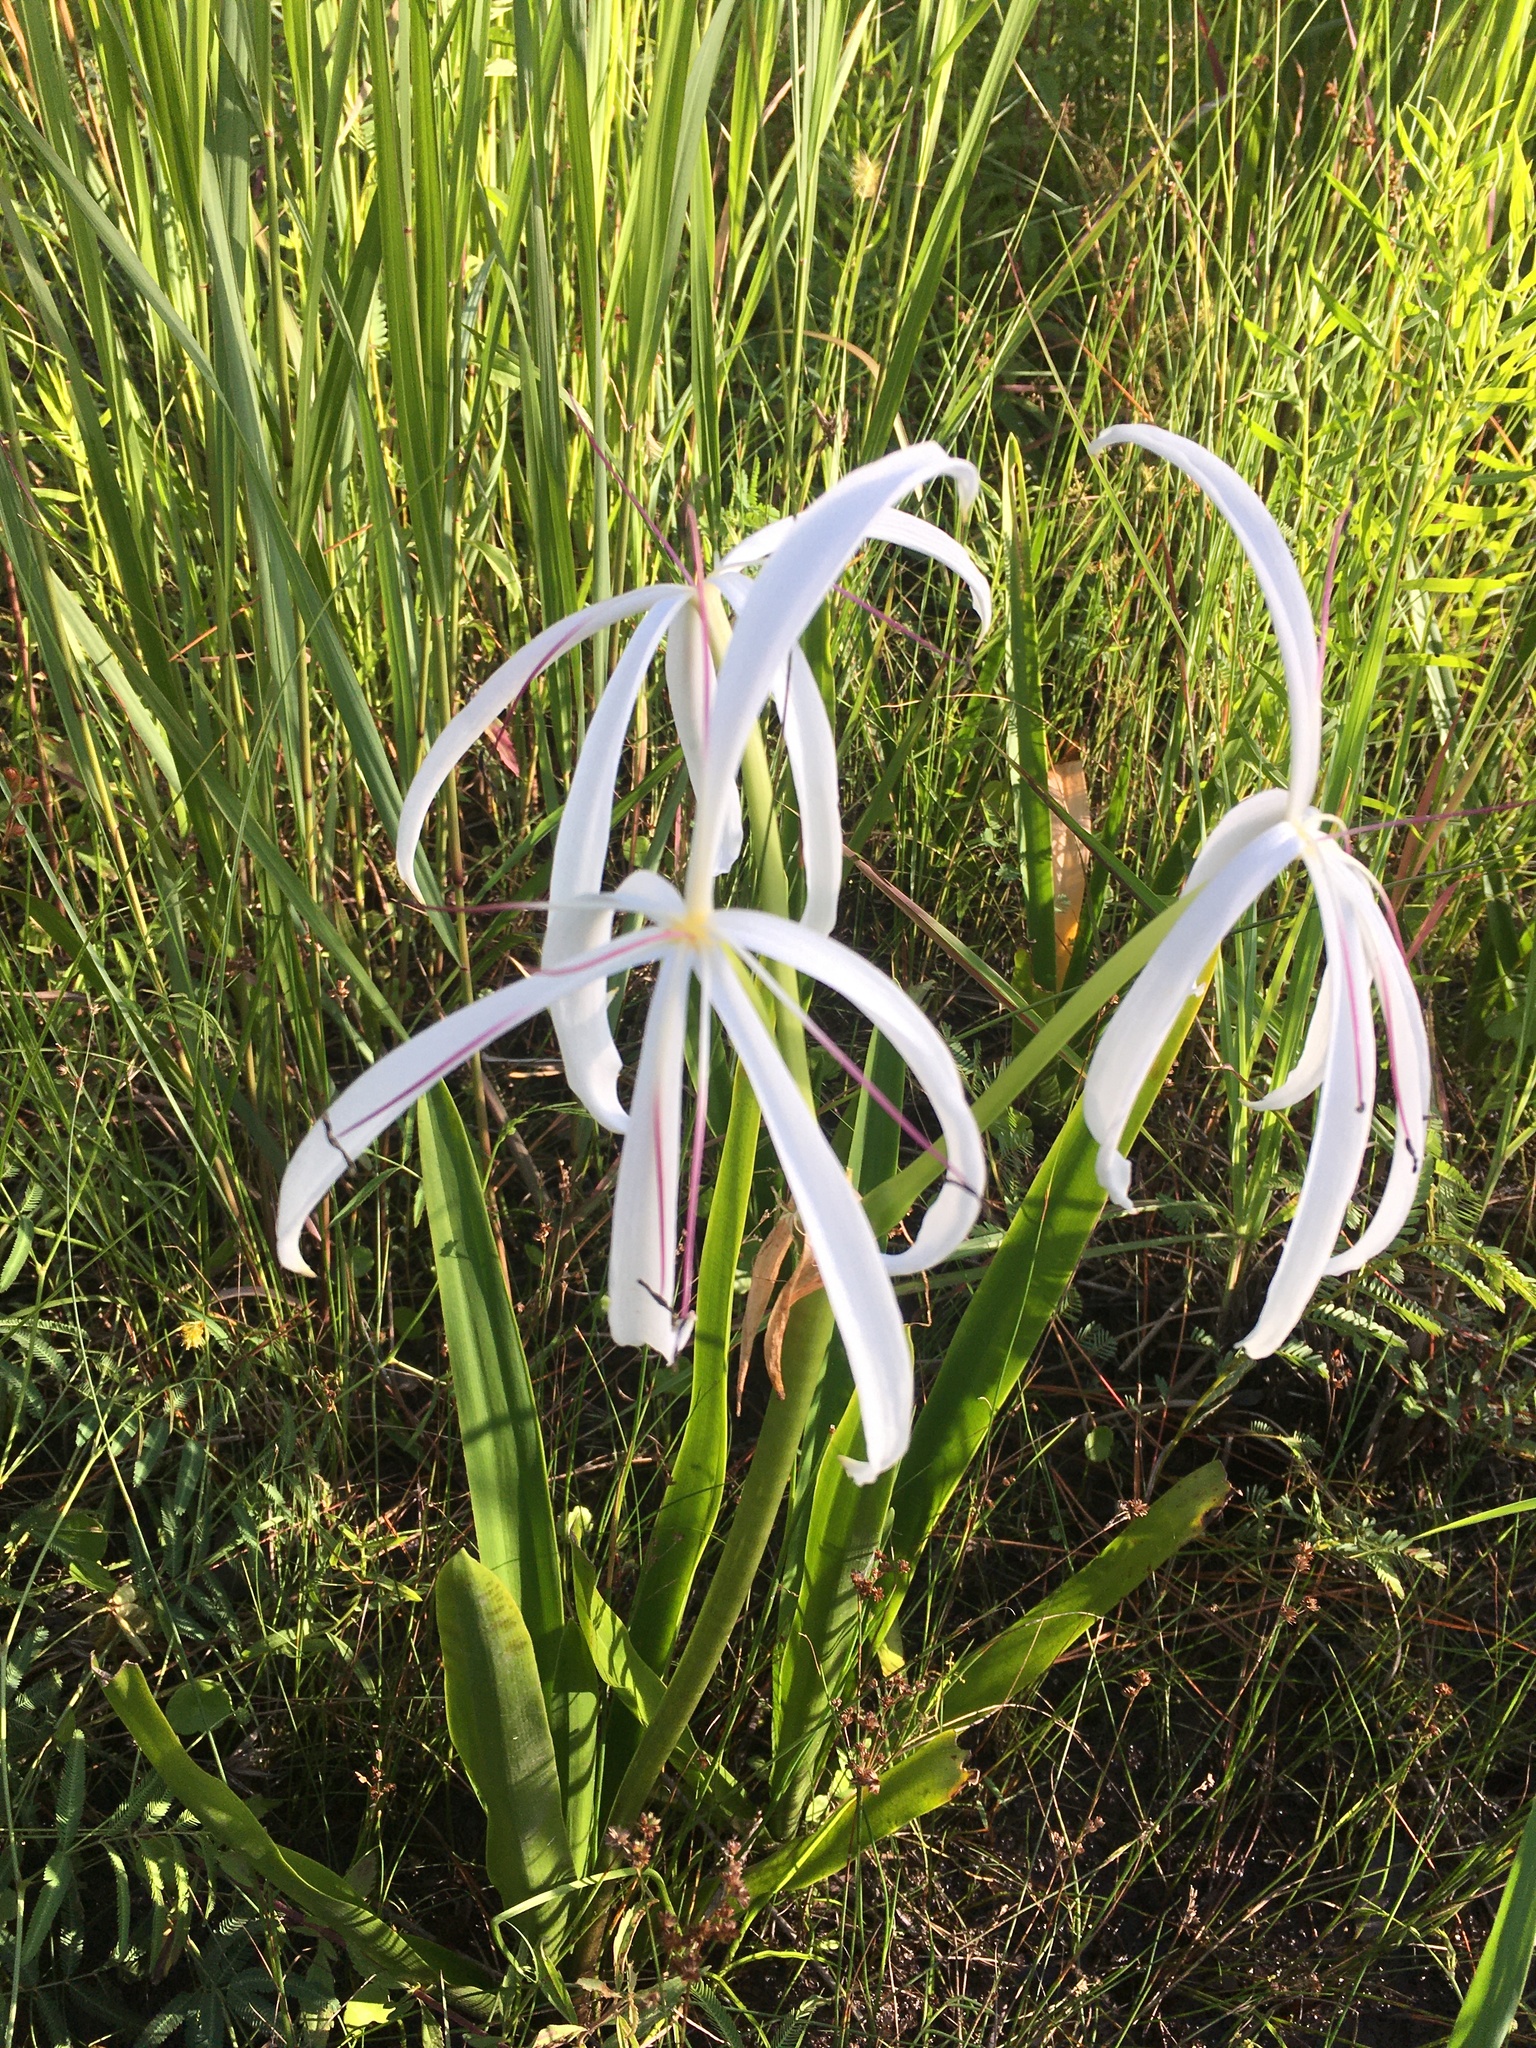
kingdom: Plantae
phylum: Tracheophyta
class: Liliopsida
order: Asparagales
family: Amaryllidaceae
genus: Crinum
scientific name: Crinum americanum
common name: Florida swamp-lily
